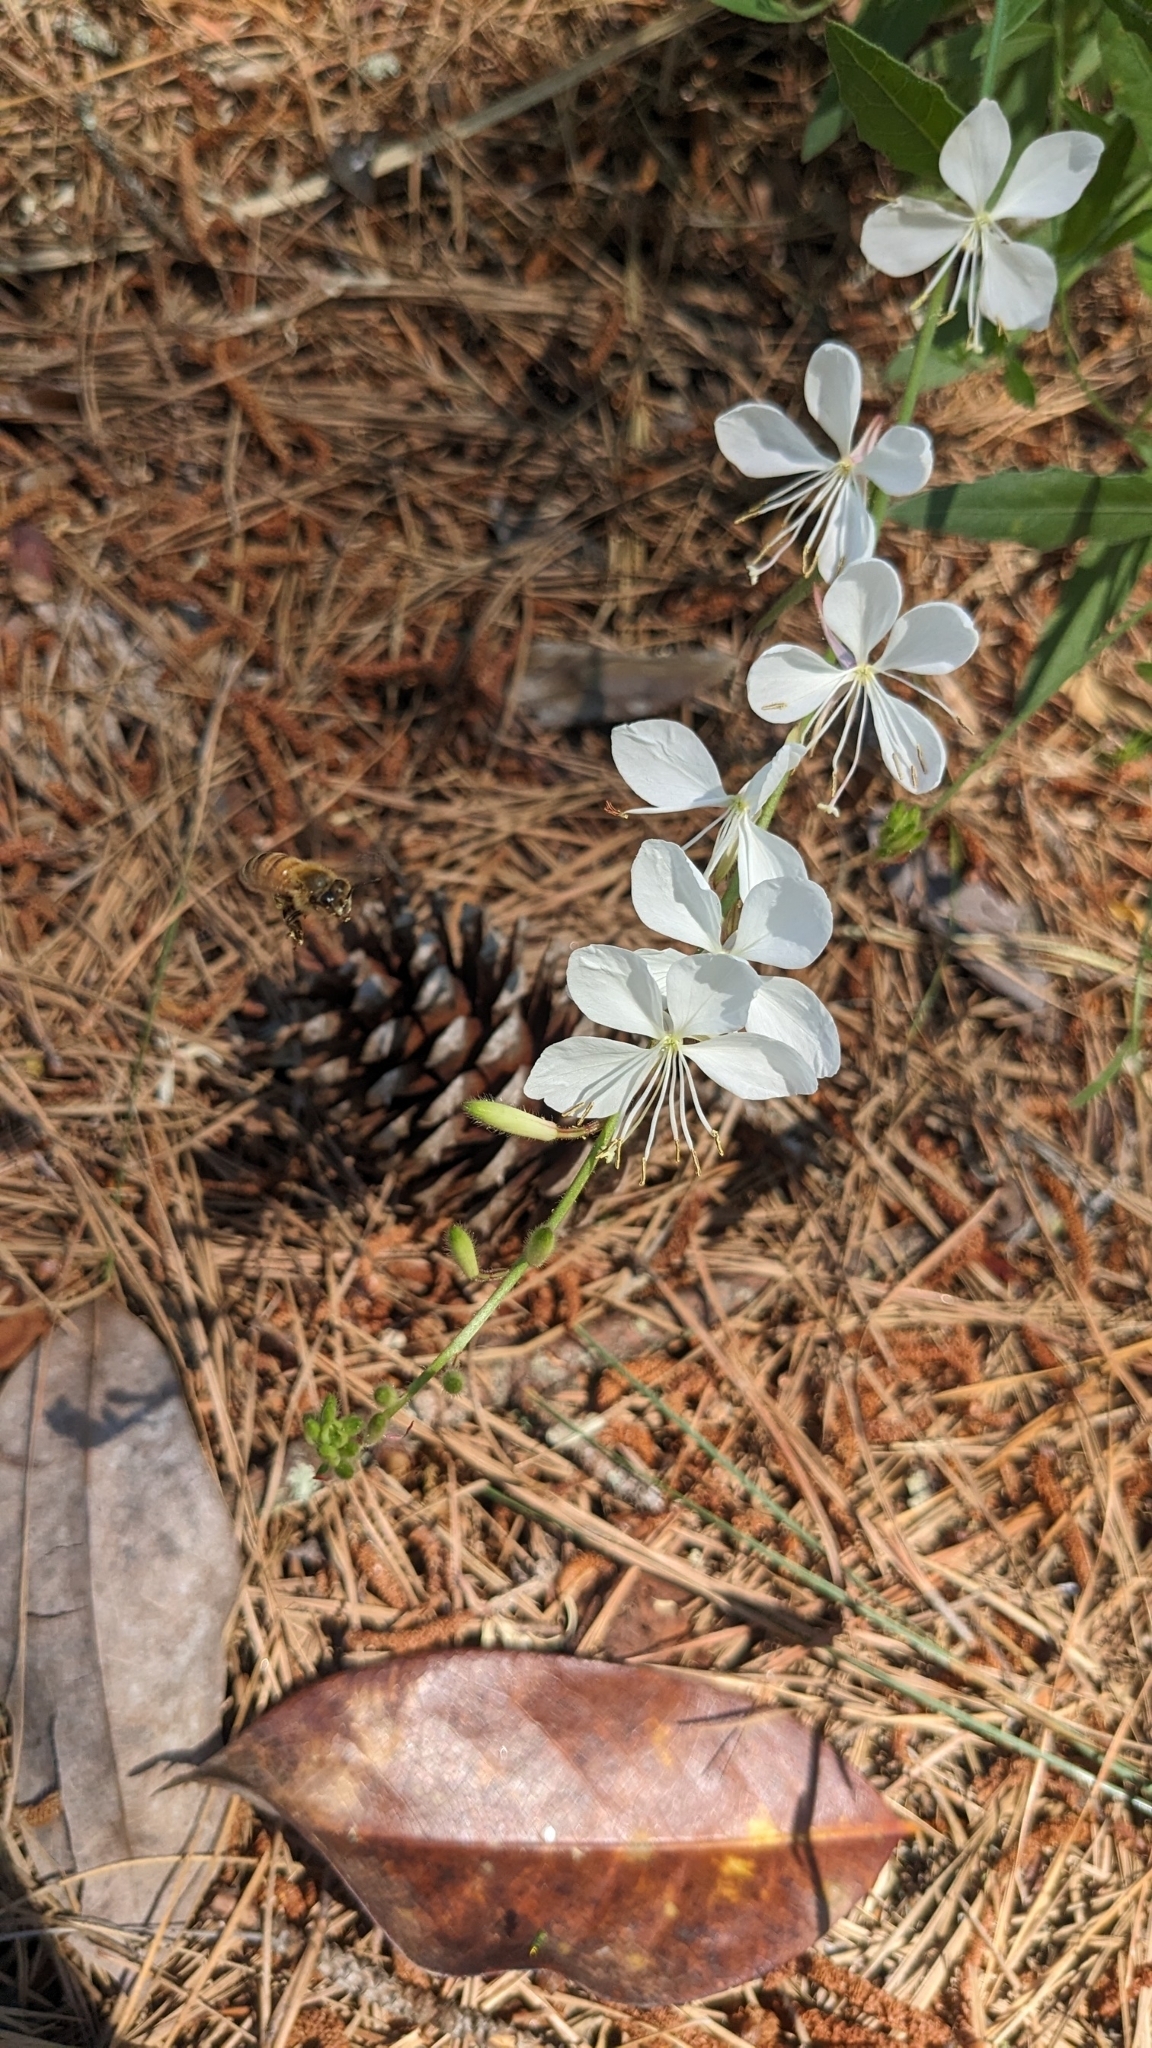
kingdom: Animalia
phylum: Arthropoda
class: Insecta
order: Hymenoptera
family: Apidae
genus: Apis
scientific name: Apis mellifera
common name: Honey bee
